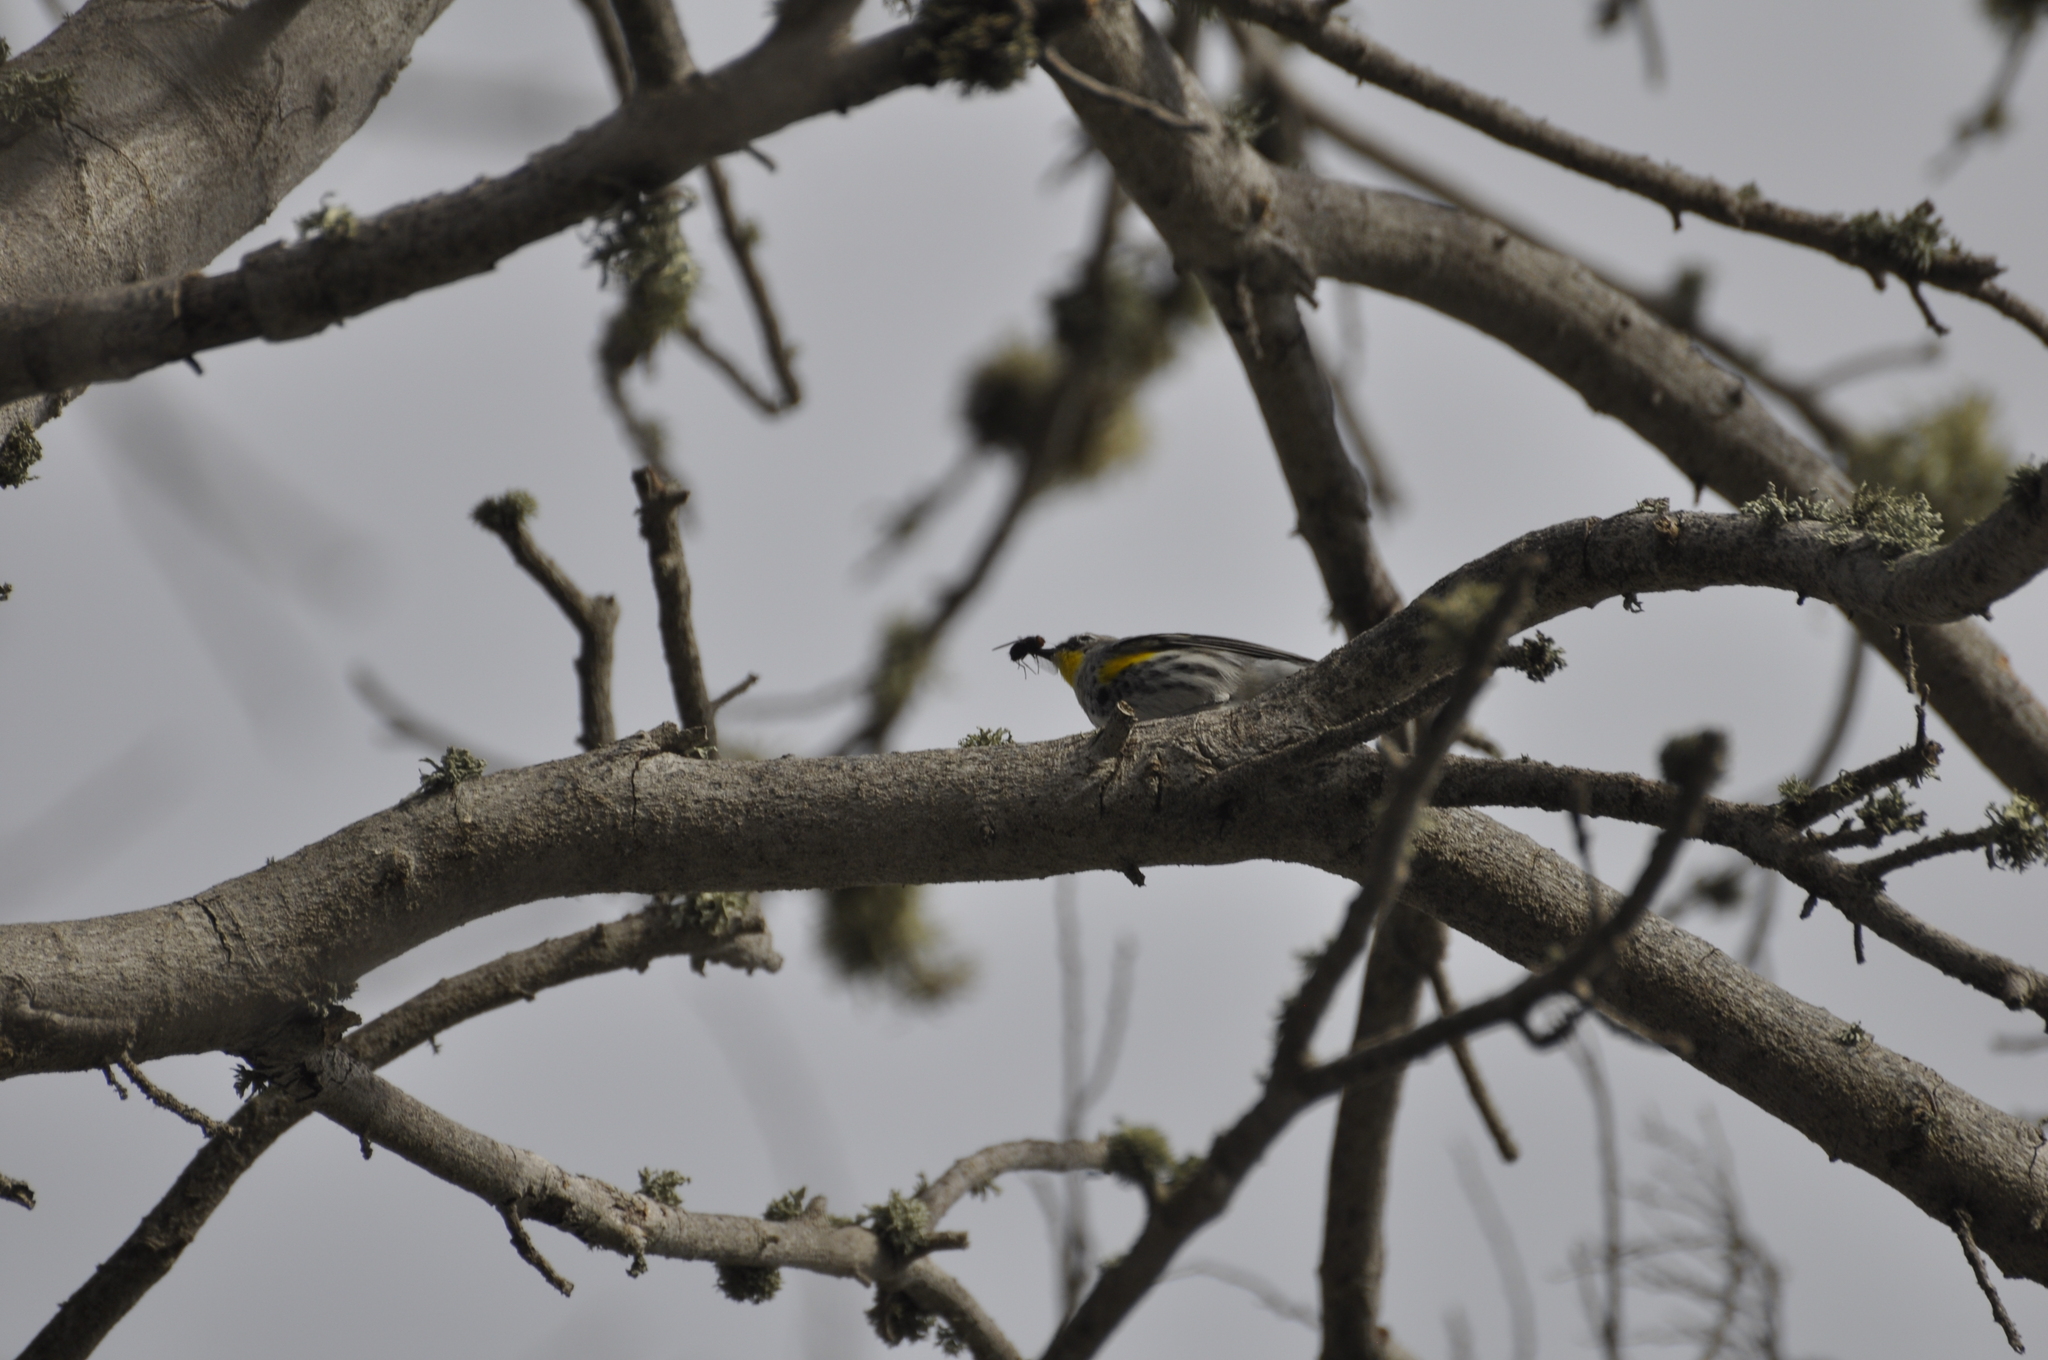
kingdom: Animalia
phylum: Chordata
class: Aves
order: Passeriformes
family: Parulidae
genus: Setophaga
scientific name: Setophaga coronata
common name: Myrtle warbler
